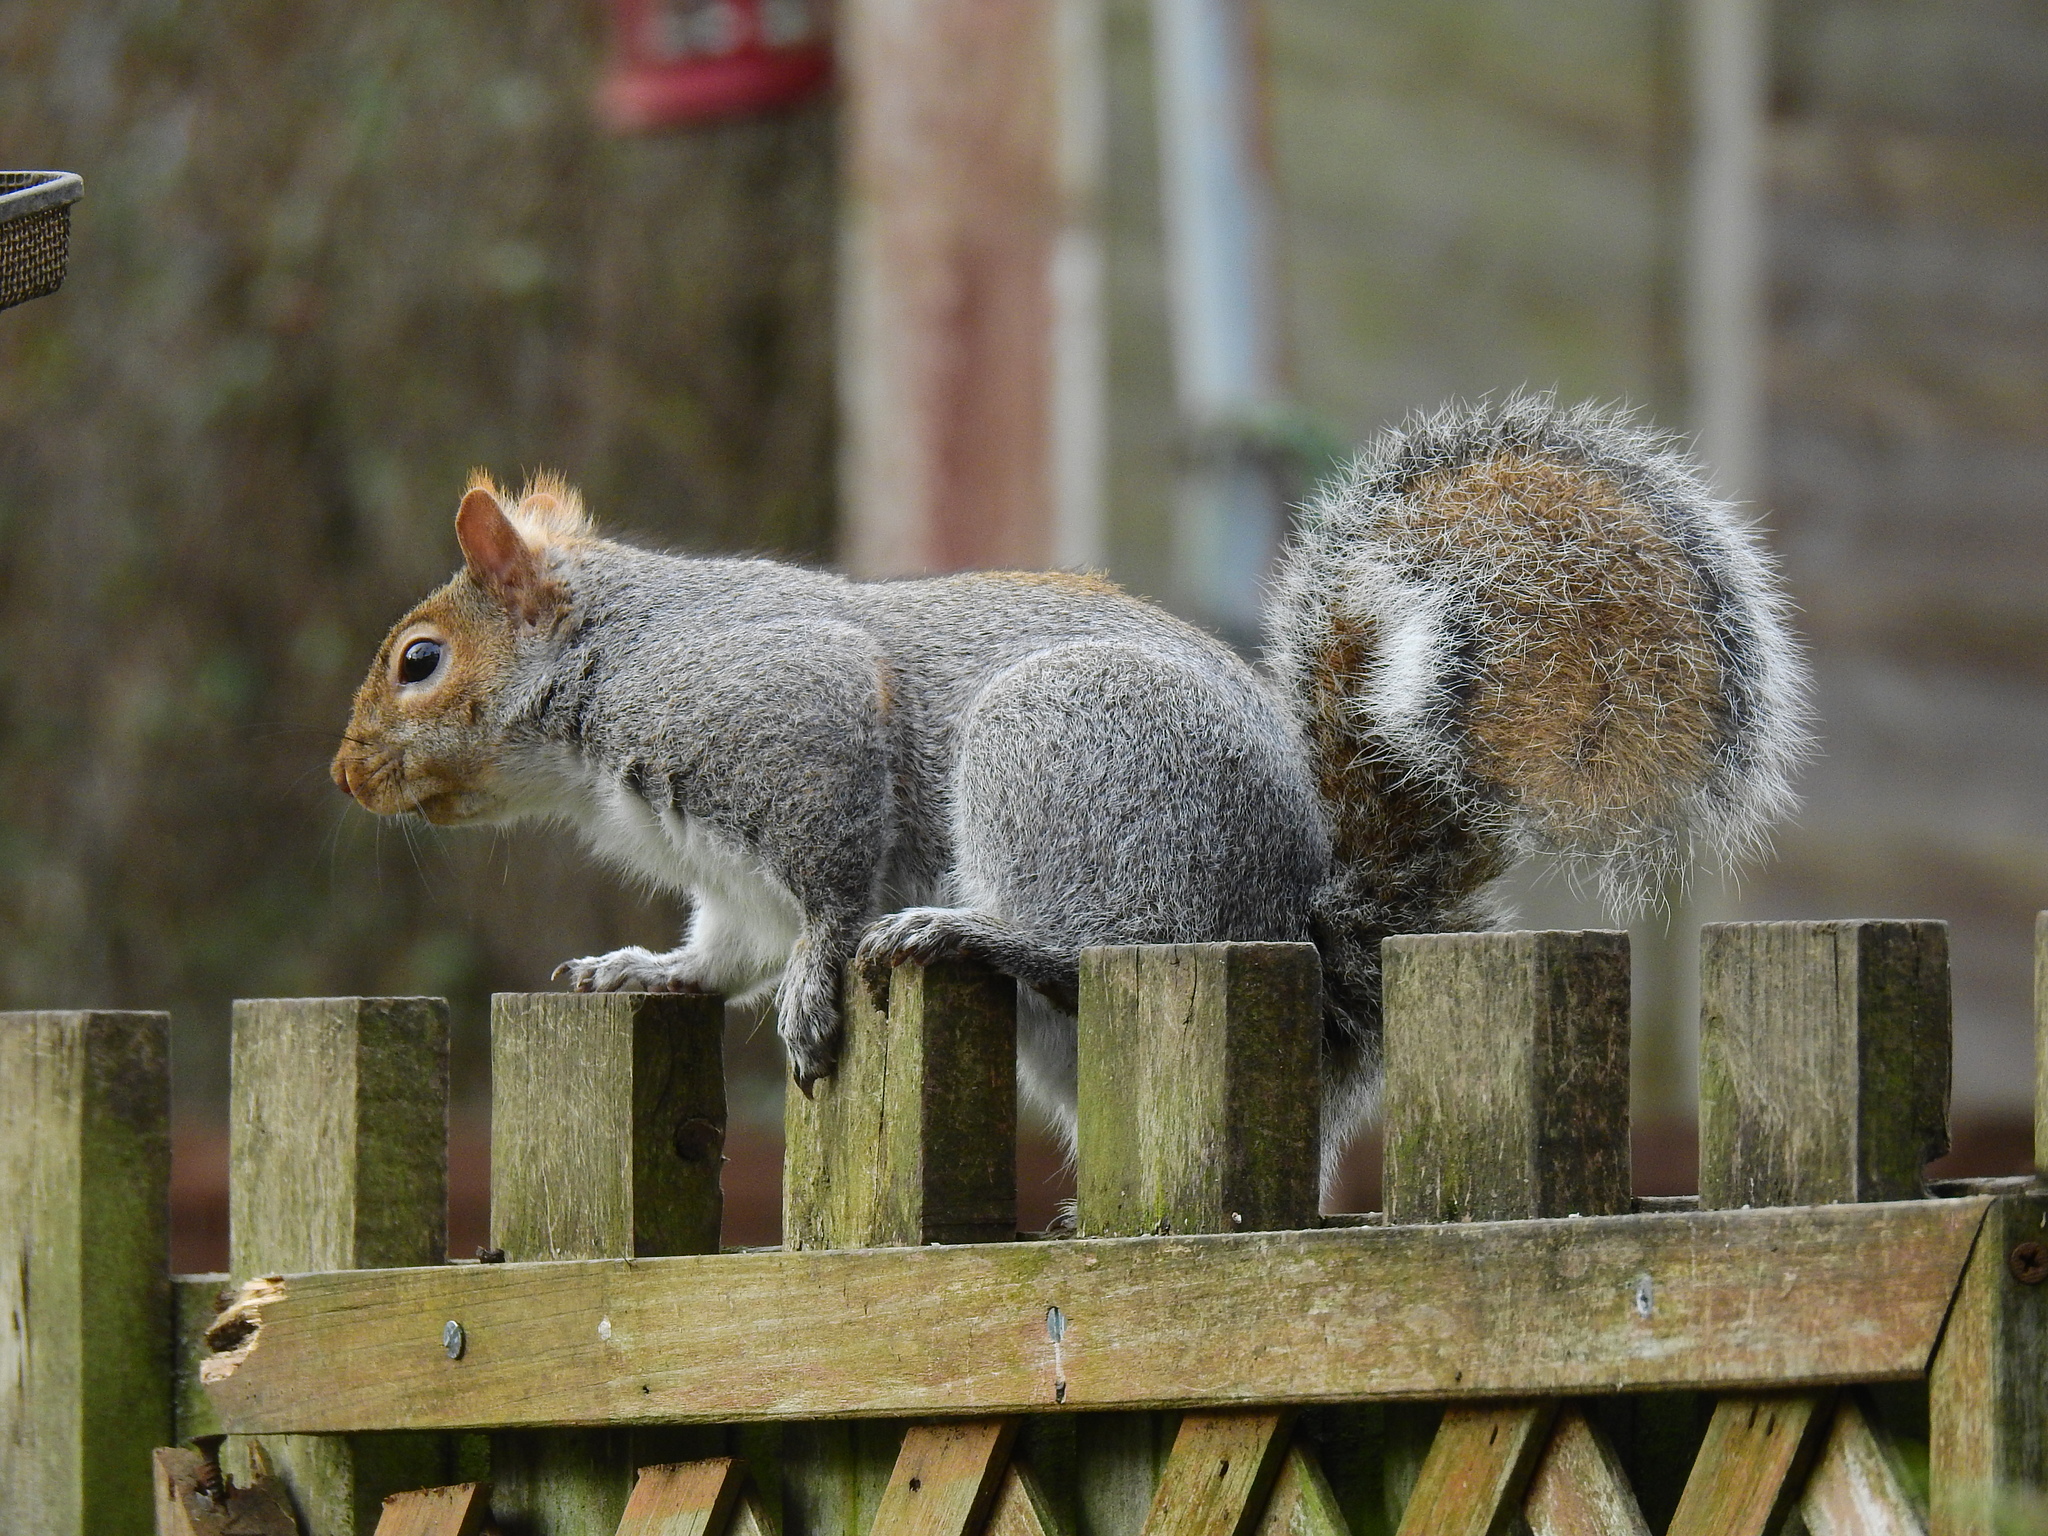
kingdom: Animalia
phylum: Chordata
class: Mammalia
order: Rodentia
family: Sciuridae
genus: Sciurus
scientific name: Sciurus carolinensis
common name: Eastern gray squirrel
